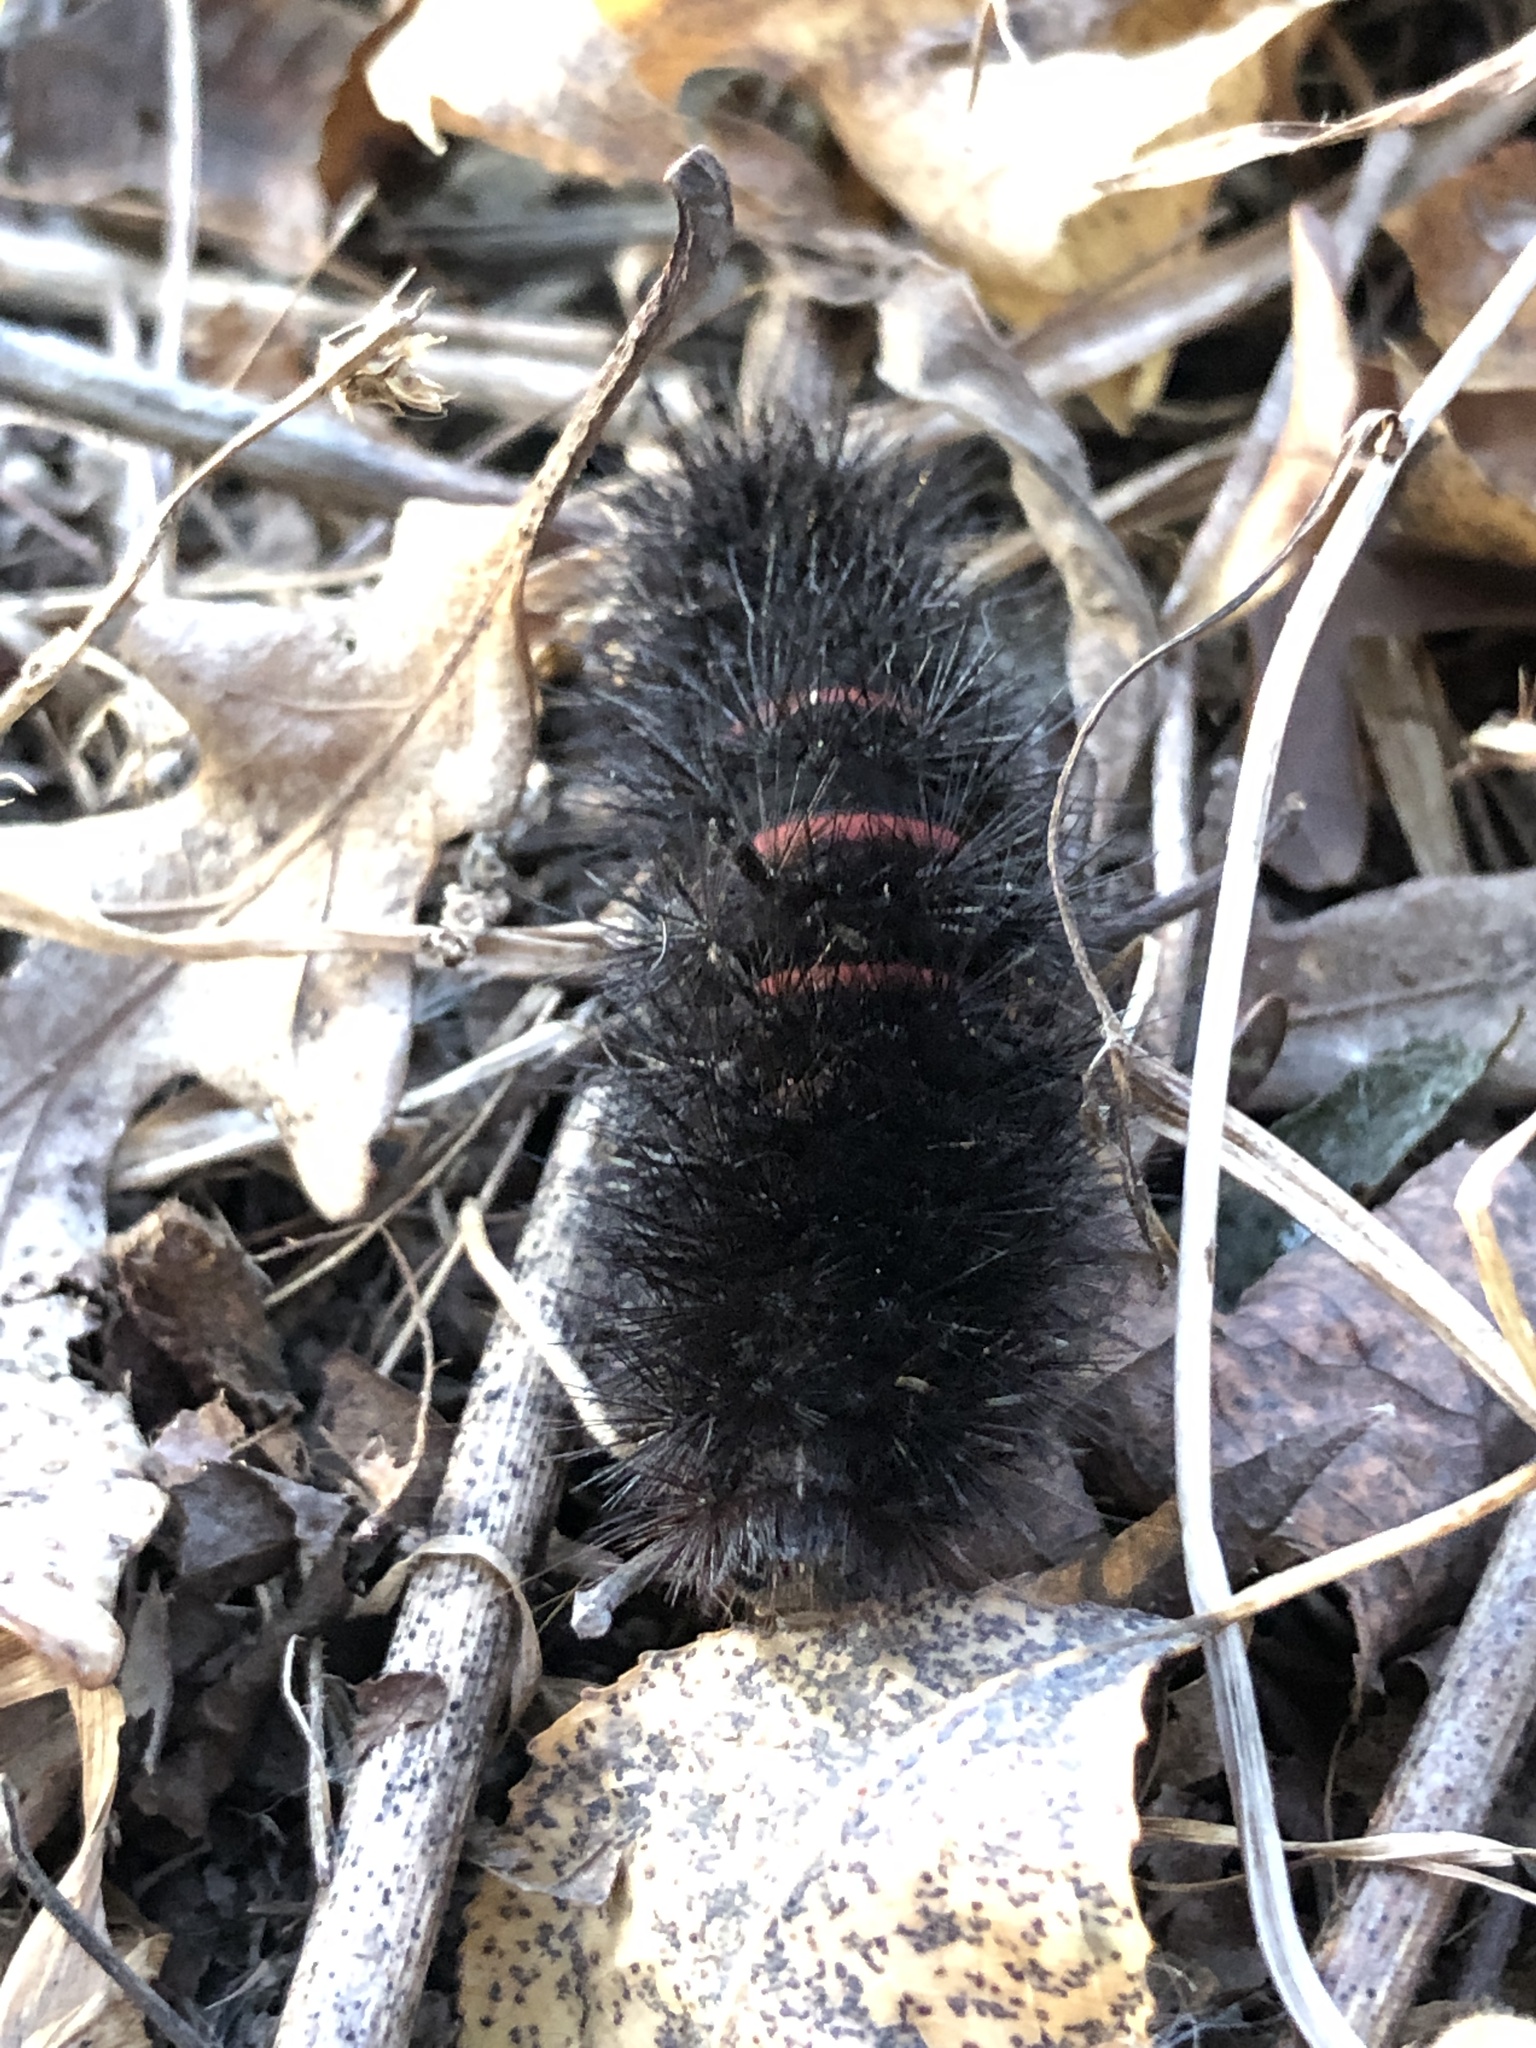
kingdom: Animalia
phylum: Arthropoda
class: Insecta
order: Lepidoptera
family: Erebidae
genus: Hypercompe
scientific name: Hypercompe scribonia
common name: Giant leopard moth
